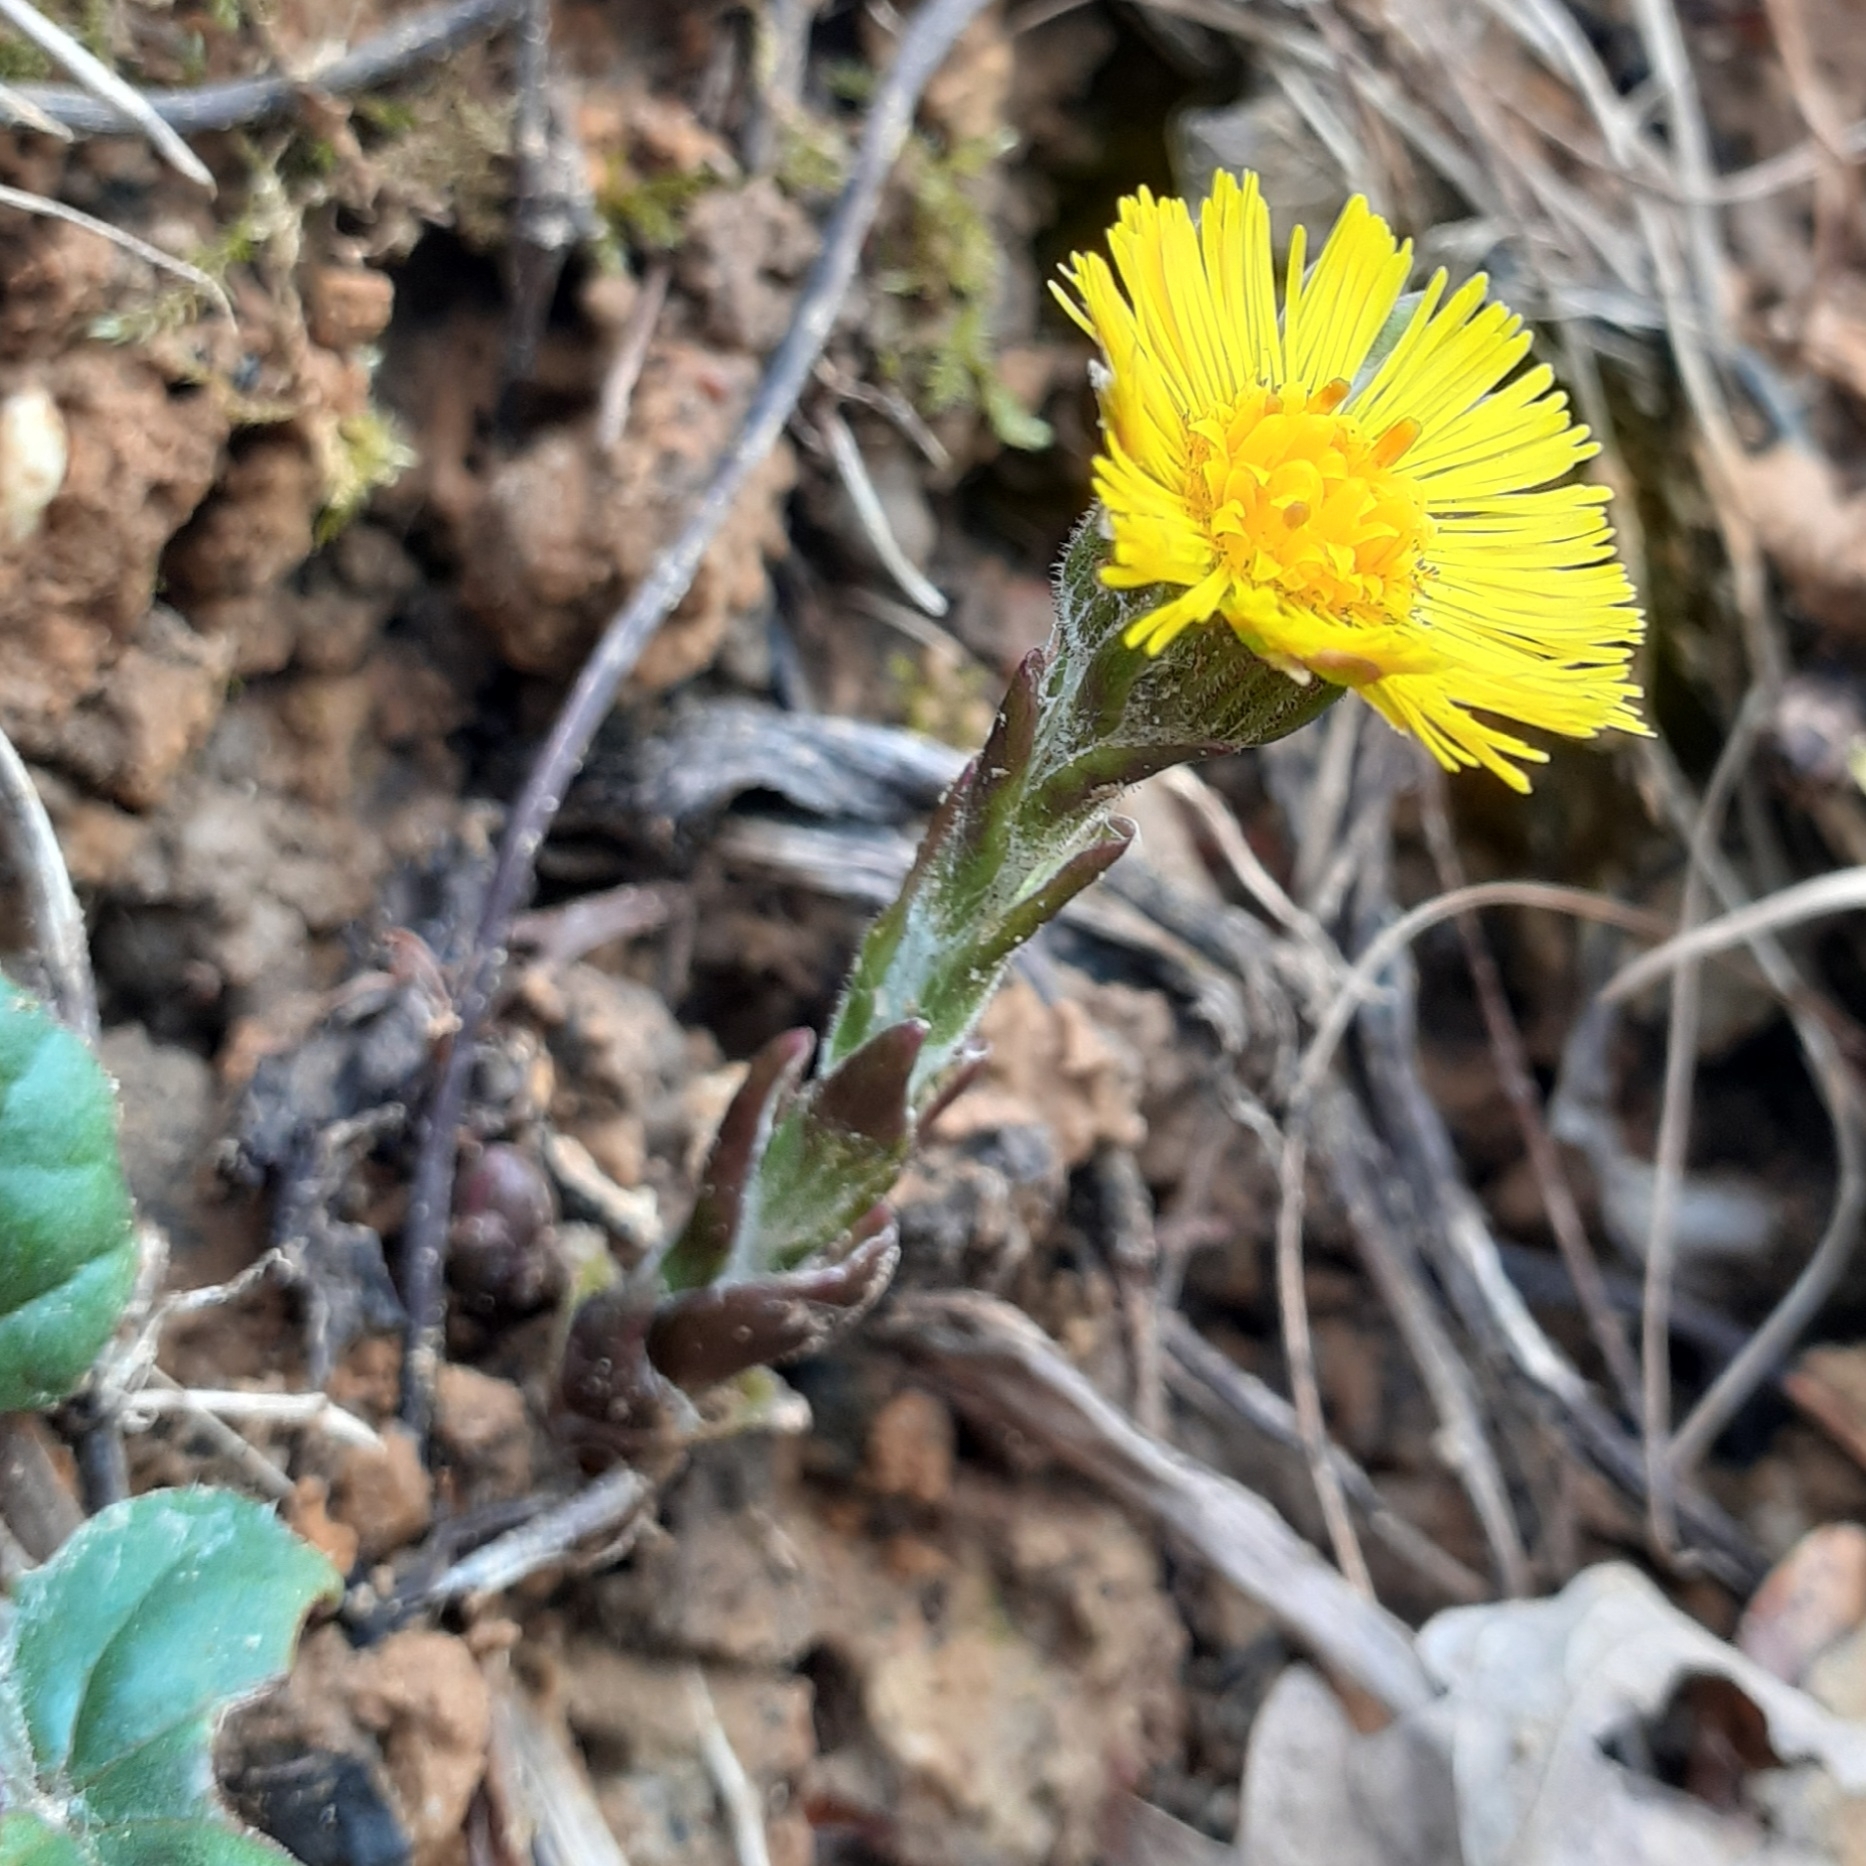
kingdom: Plantae
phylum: Tracheophyta
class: Magnoliopsida
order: Asterales
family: Asteraceae
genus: Tussilago
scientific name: Tussilago farfara
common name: Coltsfoot
